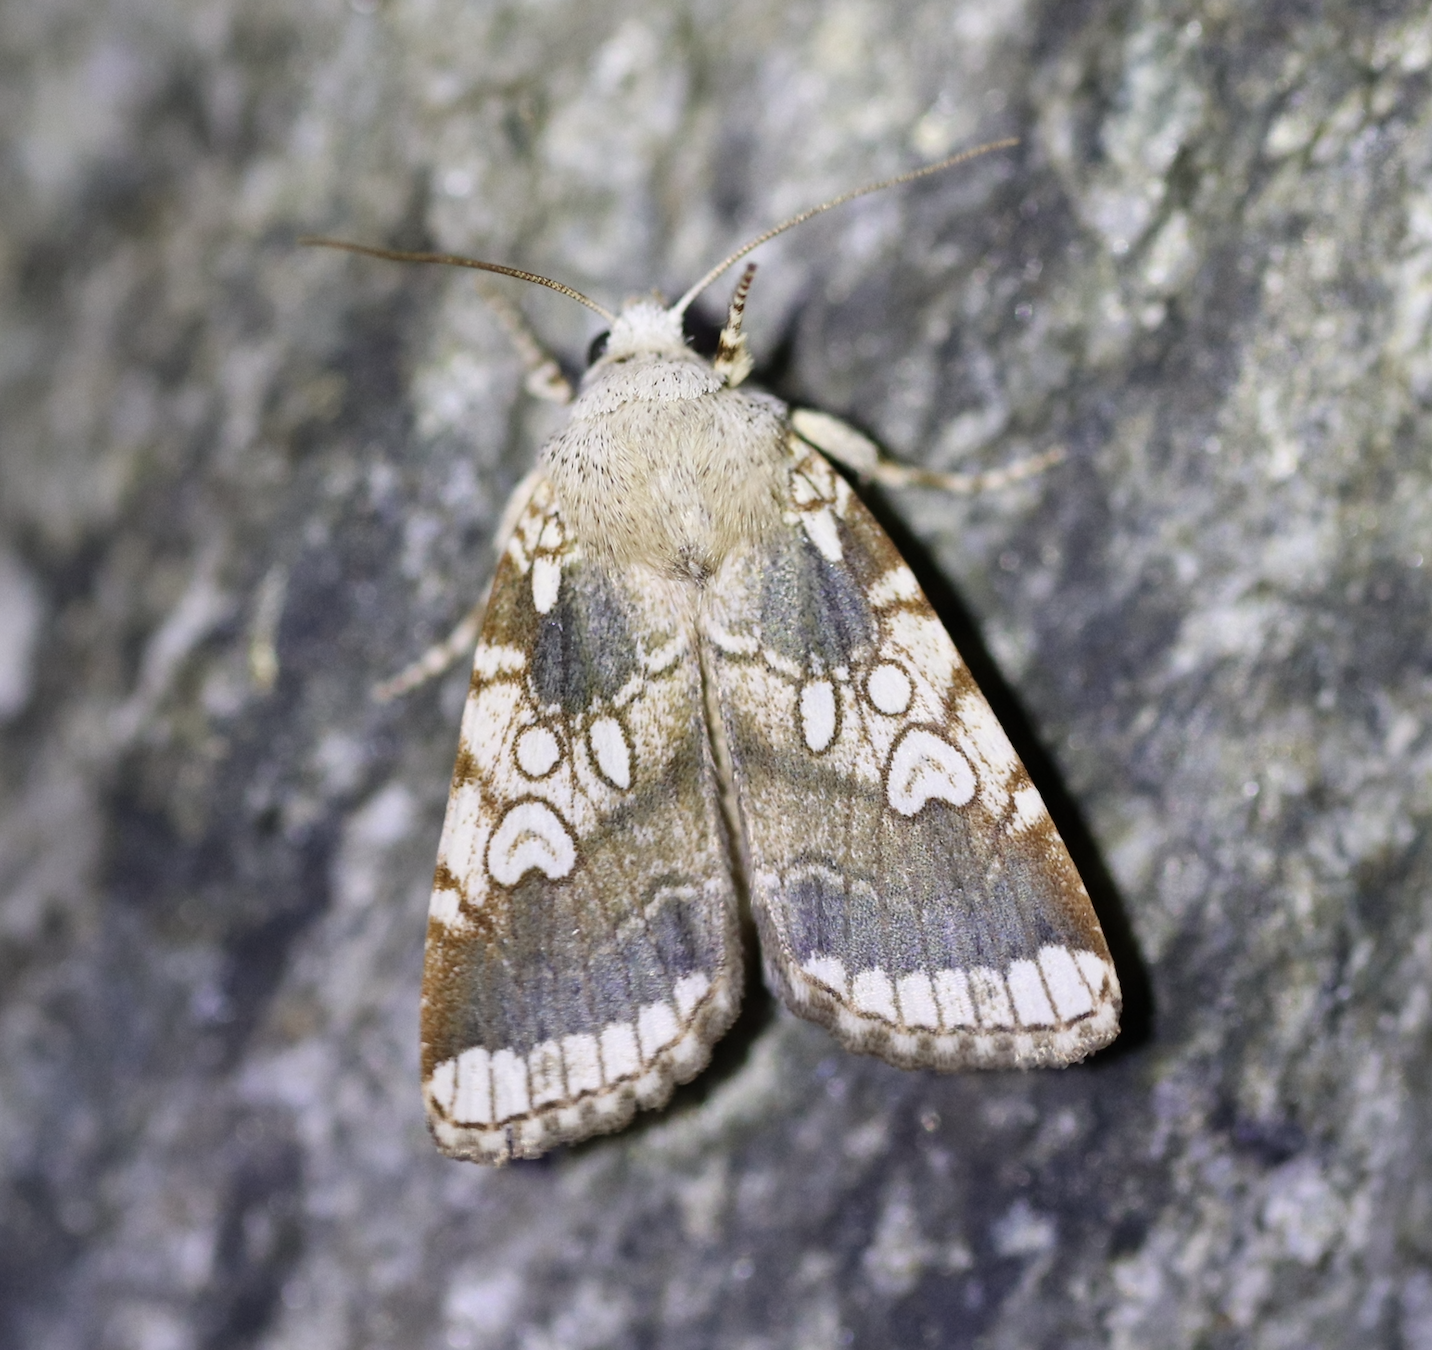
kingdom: Animalia
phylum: Arthropoda
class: Insecta
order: Lepidoptera
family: Noctuidae
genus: Dicycla
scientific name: Dicycla oo
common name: Heart moth
